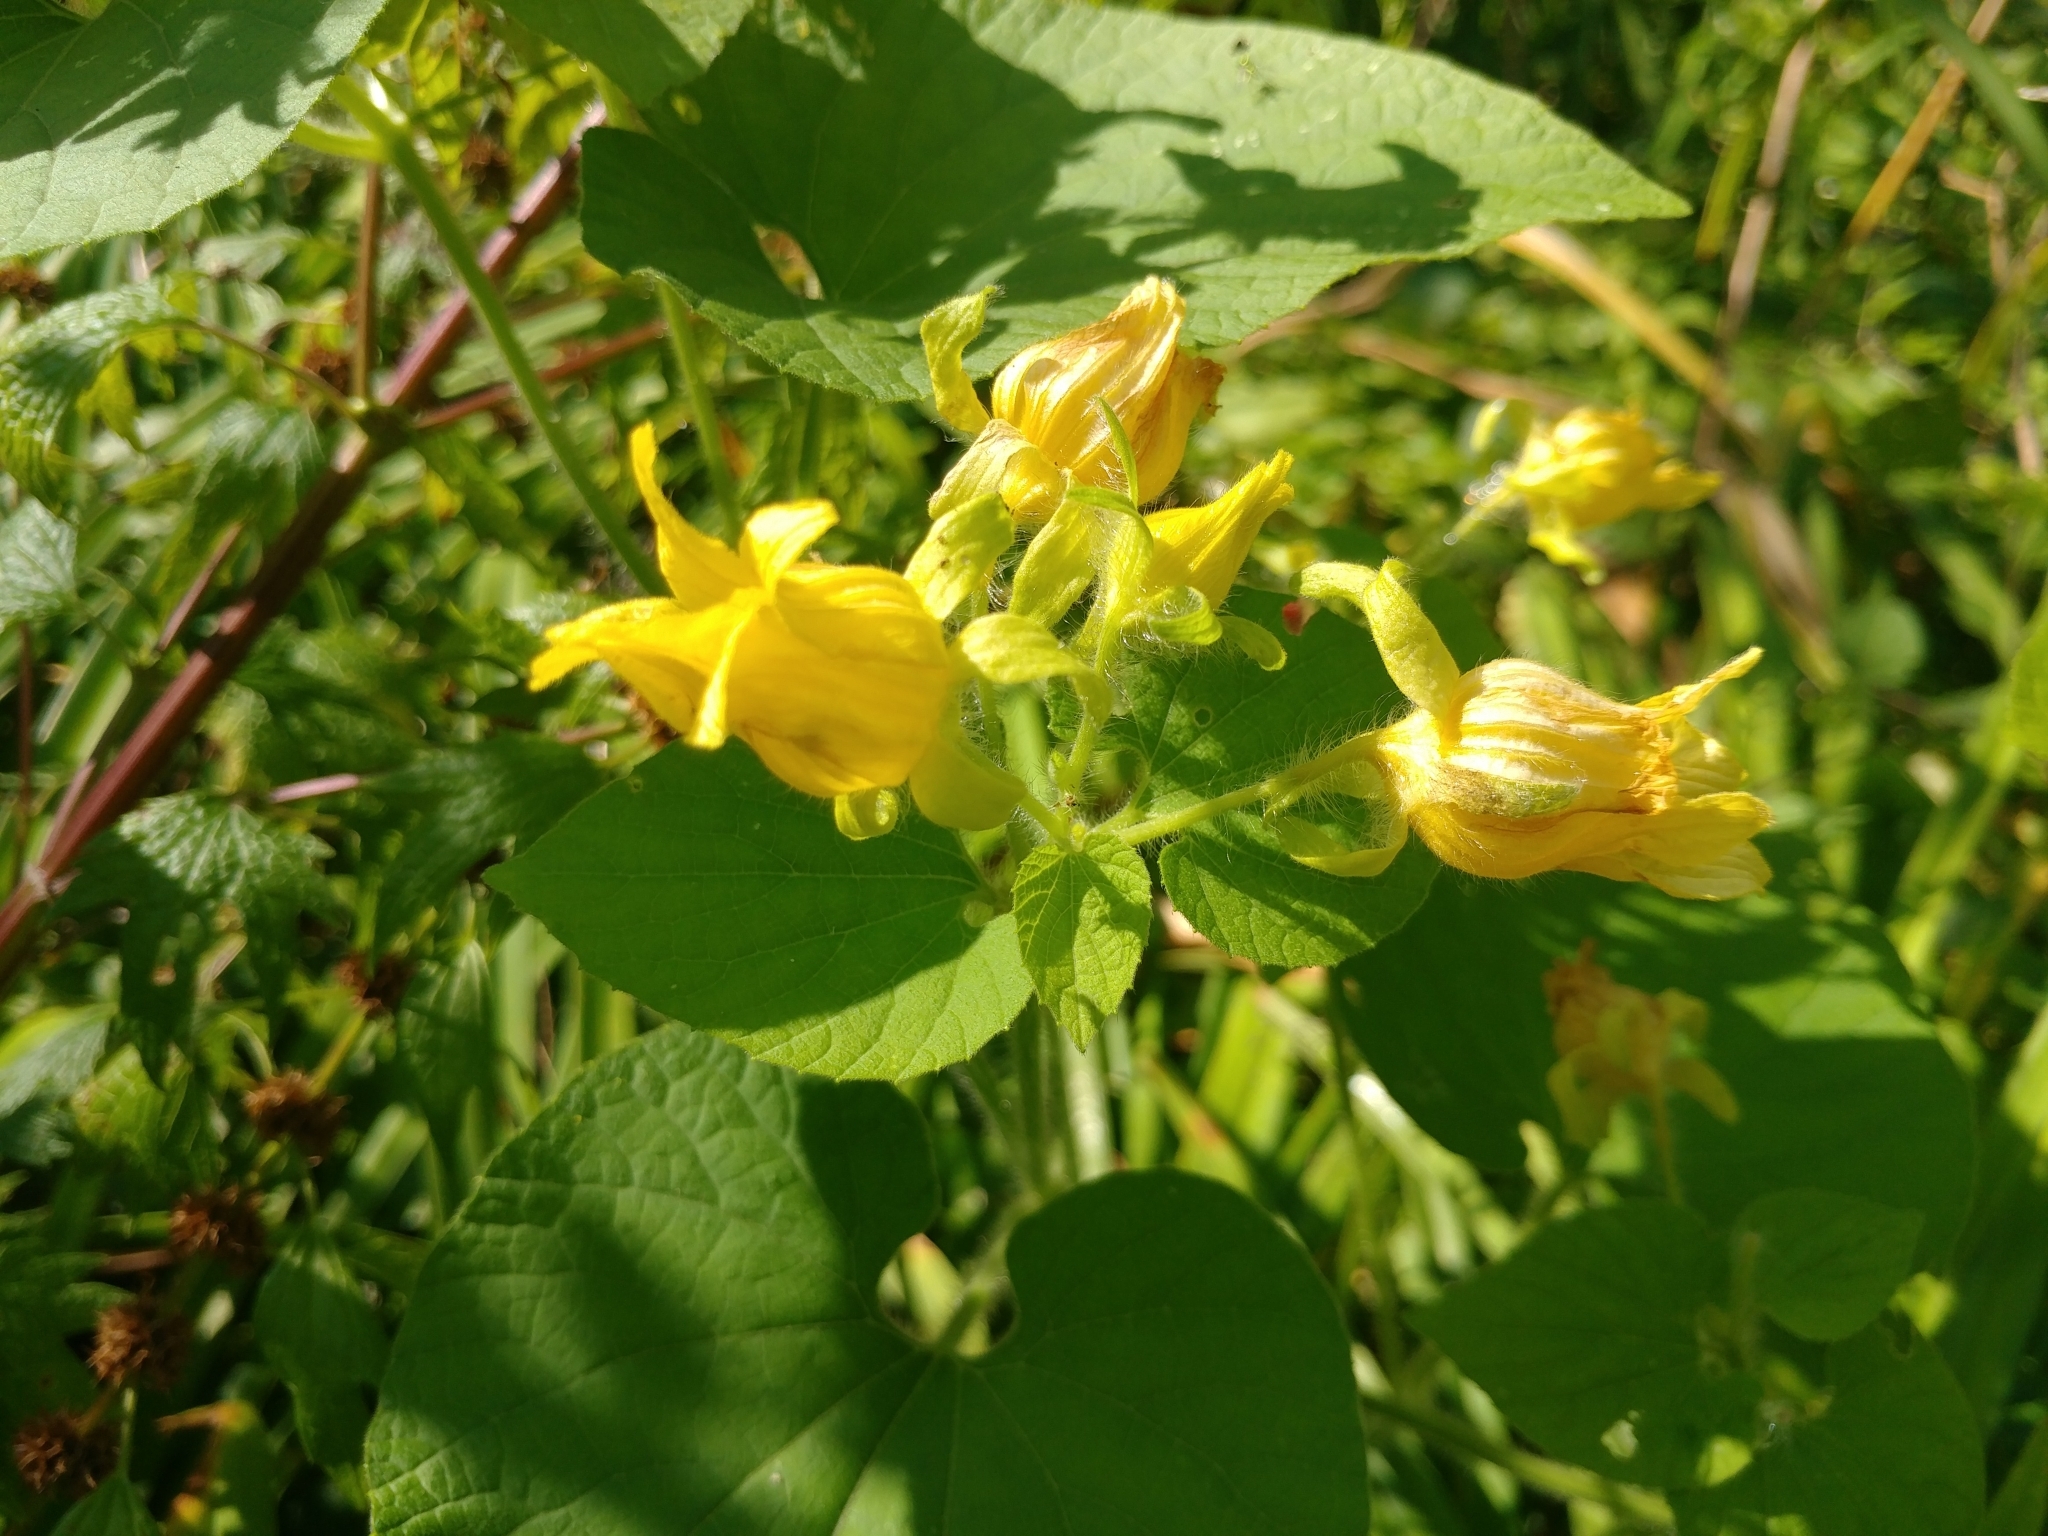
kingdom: Plantae
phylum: Tracheophyta
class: Magnoliopsida
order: Cucurbitales
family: Cucurbitaceae
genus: Thladiantha
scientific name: Thladiantha dubia
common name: Manchu tubergourd
